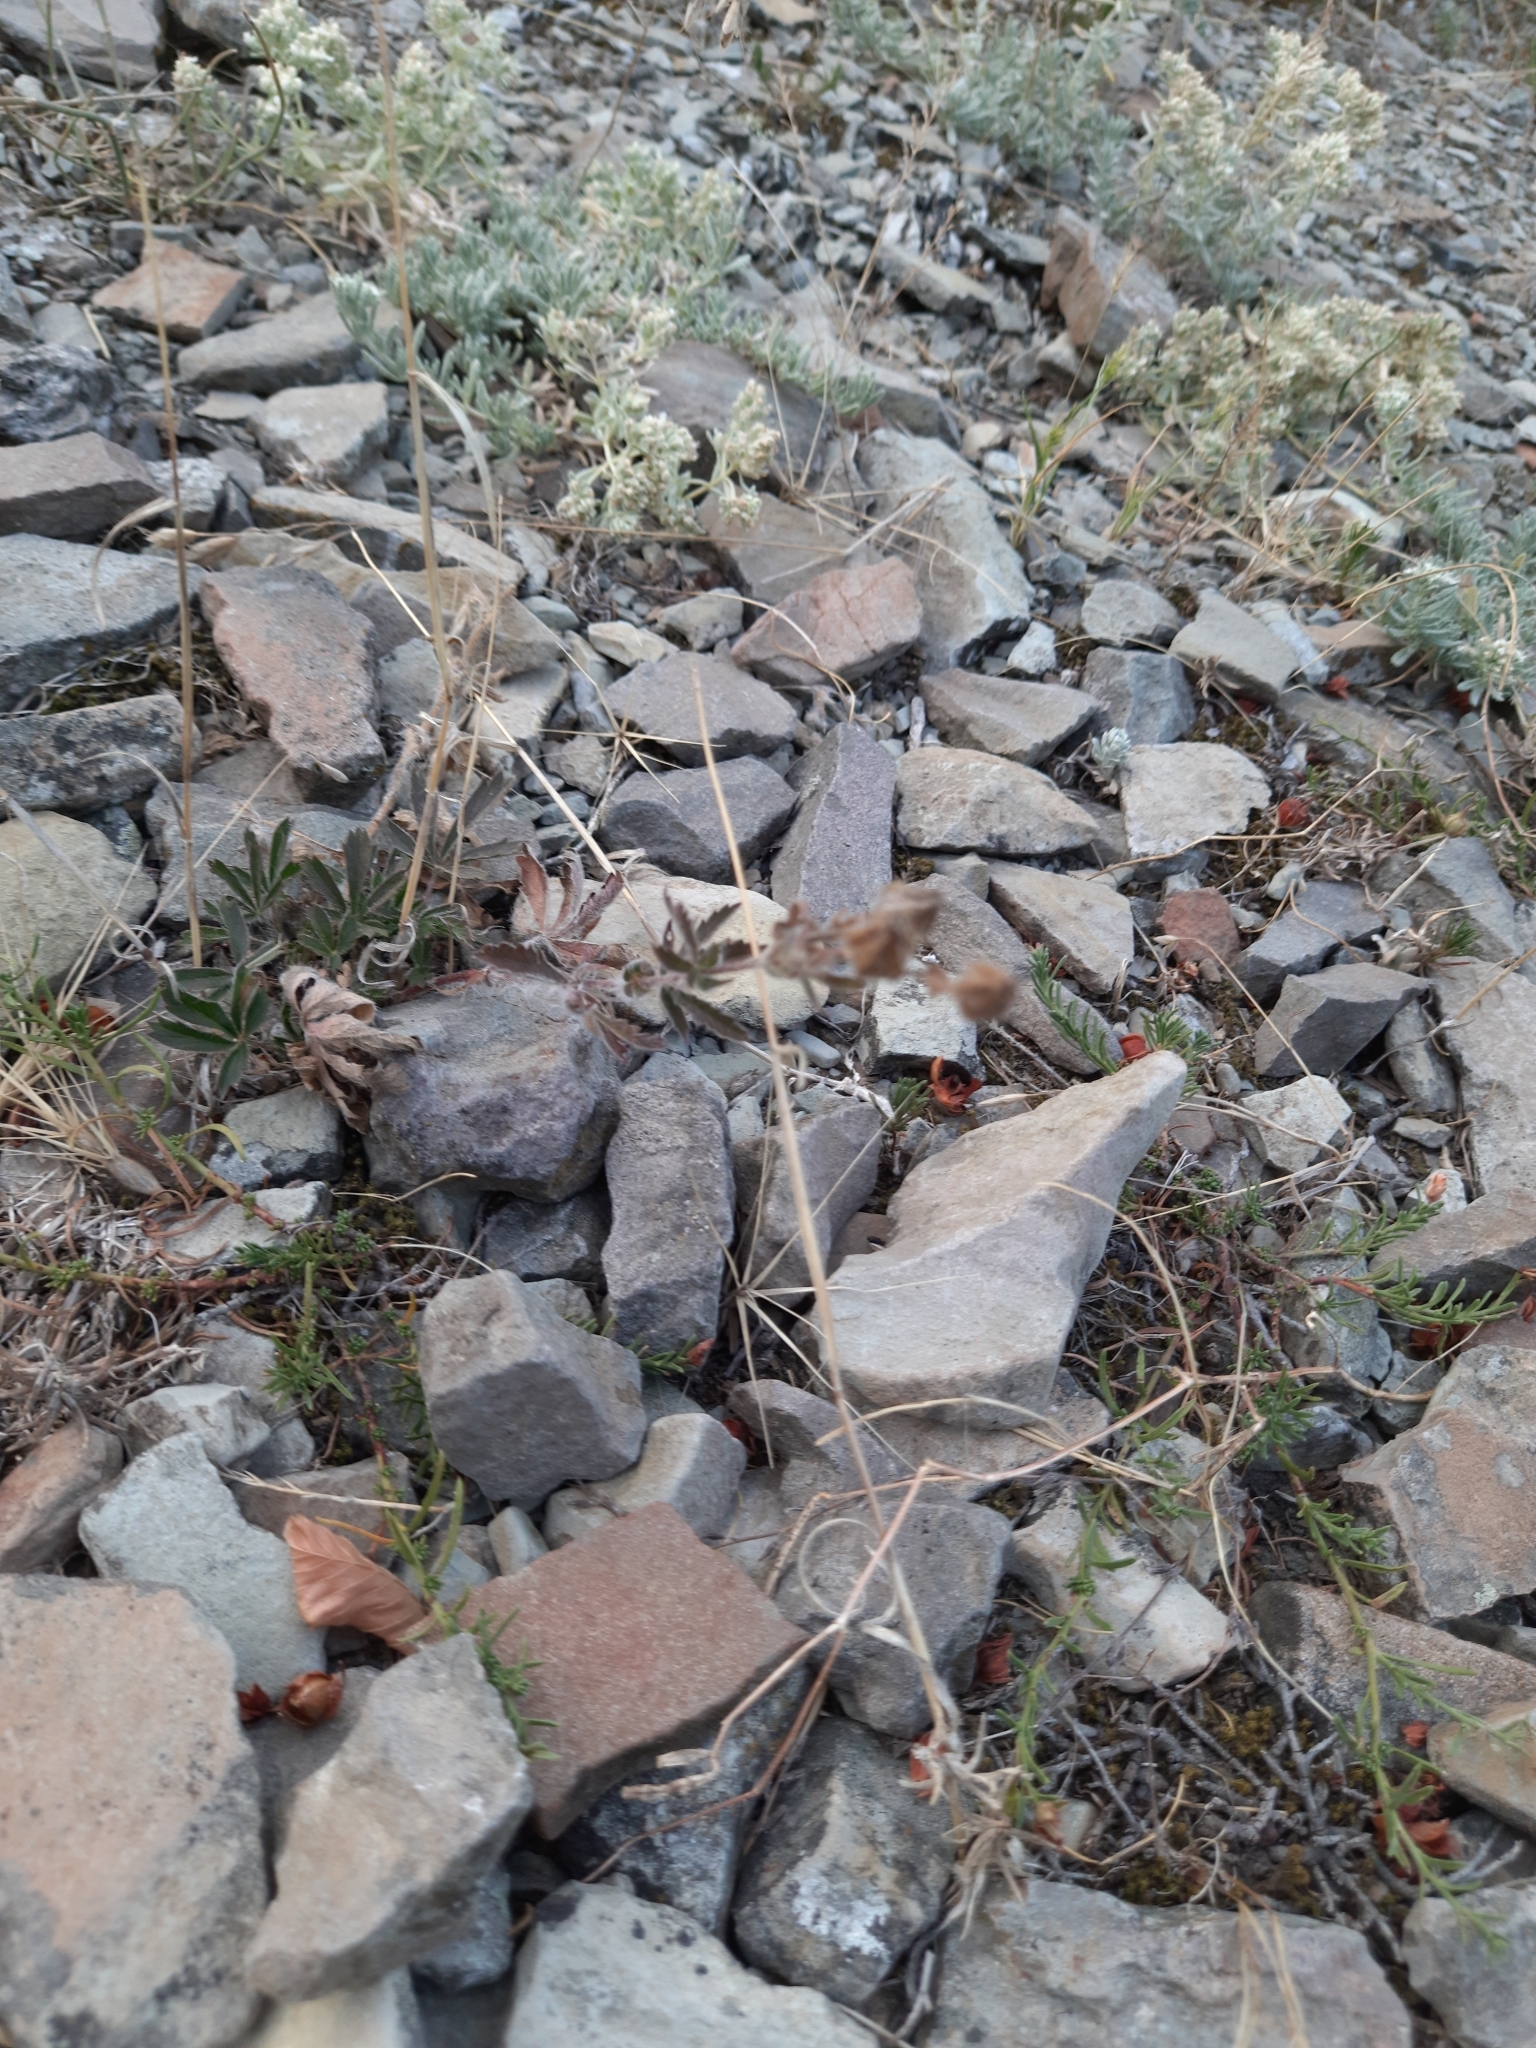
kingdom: Plantae
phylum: Tracheophyta
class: Magnoliopsida
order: Rosales
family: Rosaceae
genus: Potentilla
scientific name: Potentilla taurica
